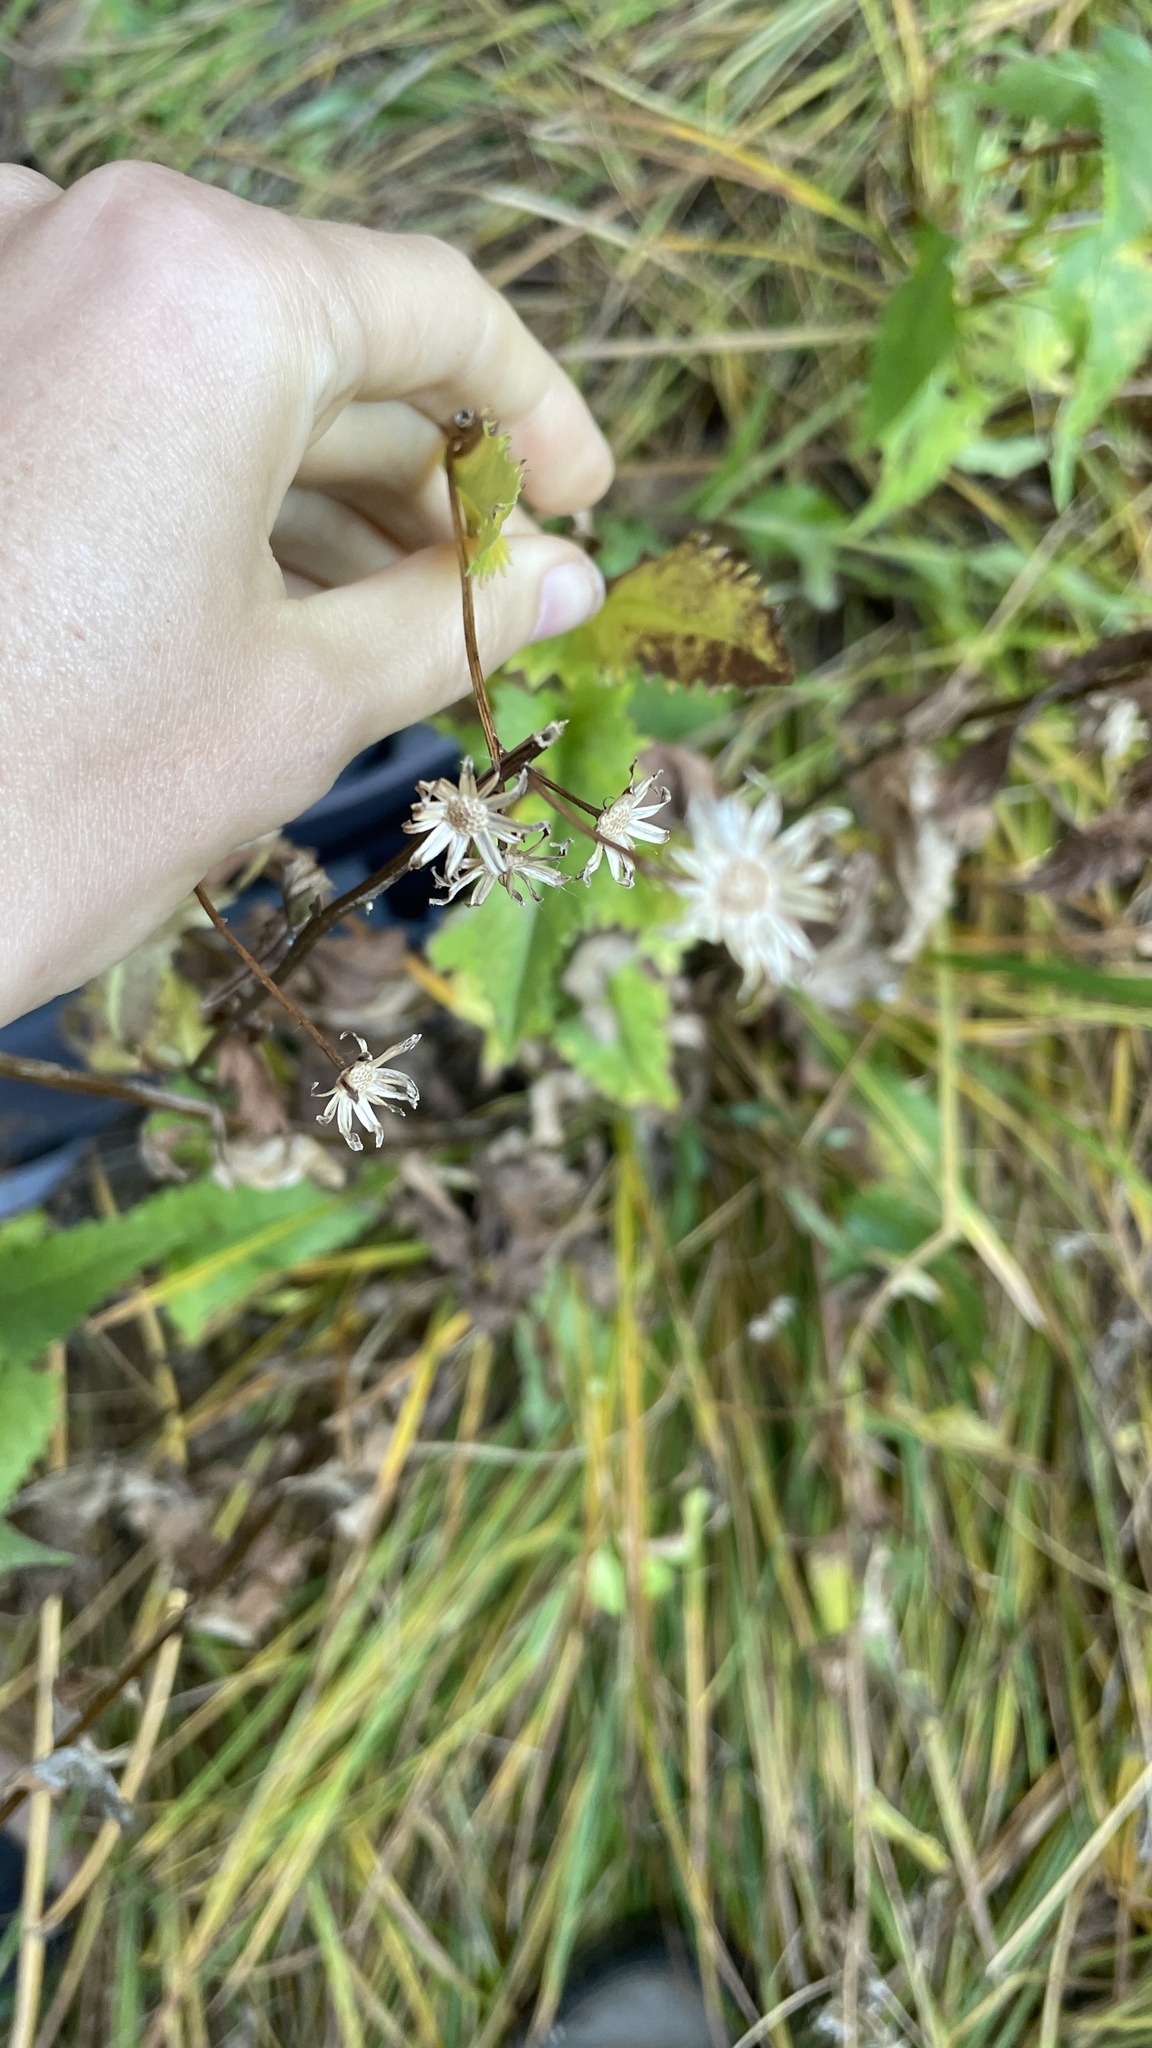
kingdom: Plantae
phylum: Tracheophyta
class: Magnoliopsida
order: Asterales
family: Asteraceae
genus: Senecio
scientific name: Senecio triangularis
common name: Arrowleaf butterweed
